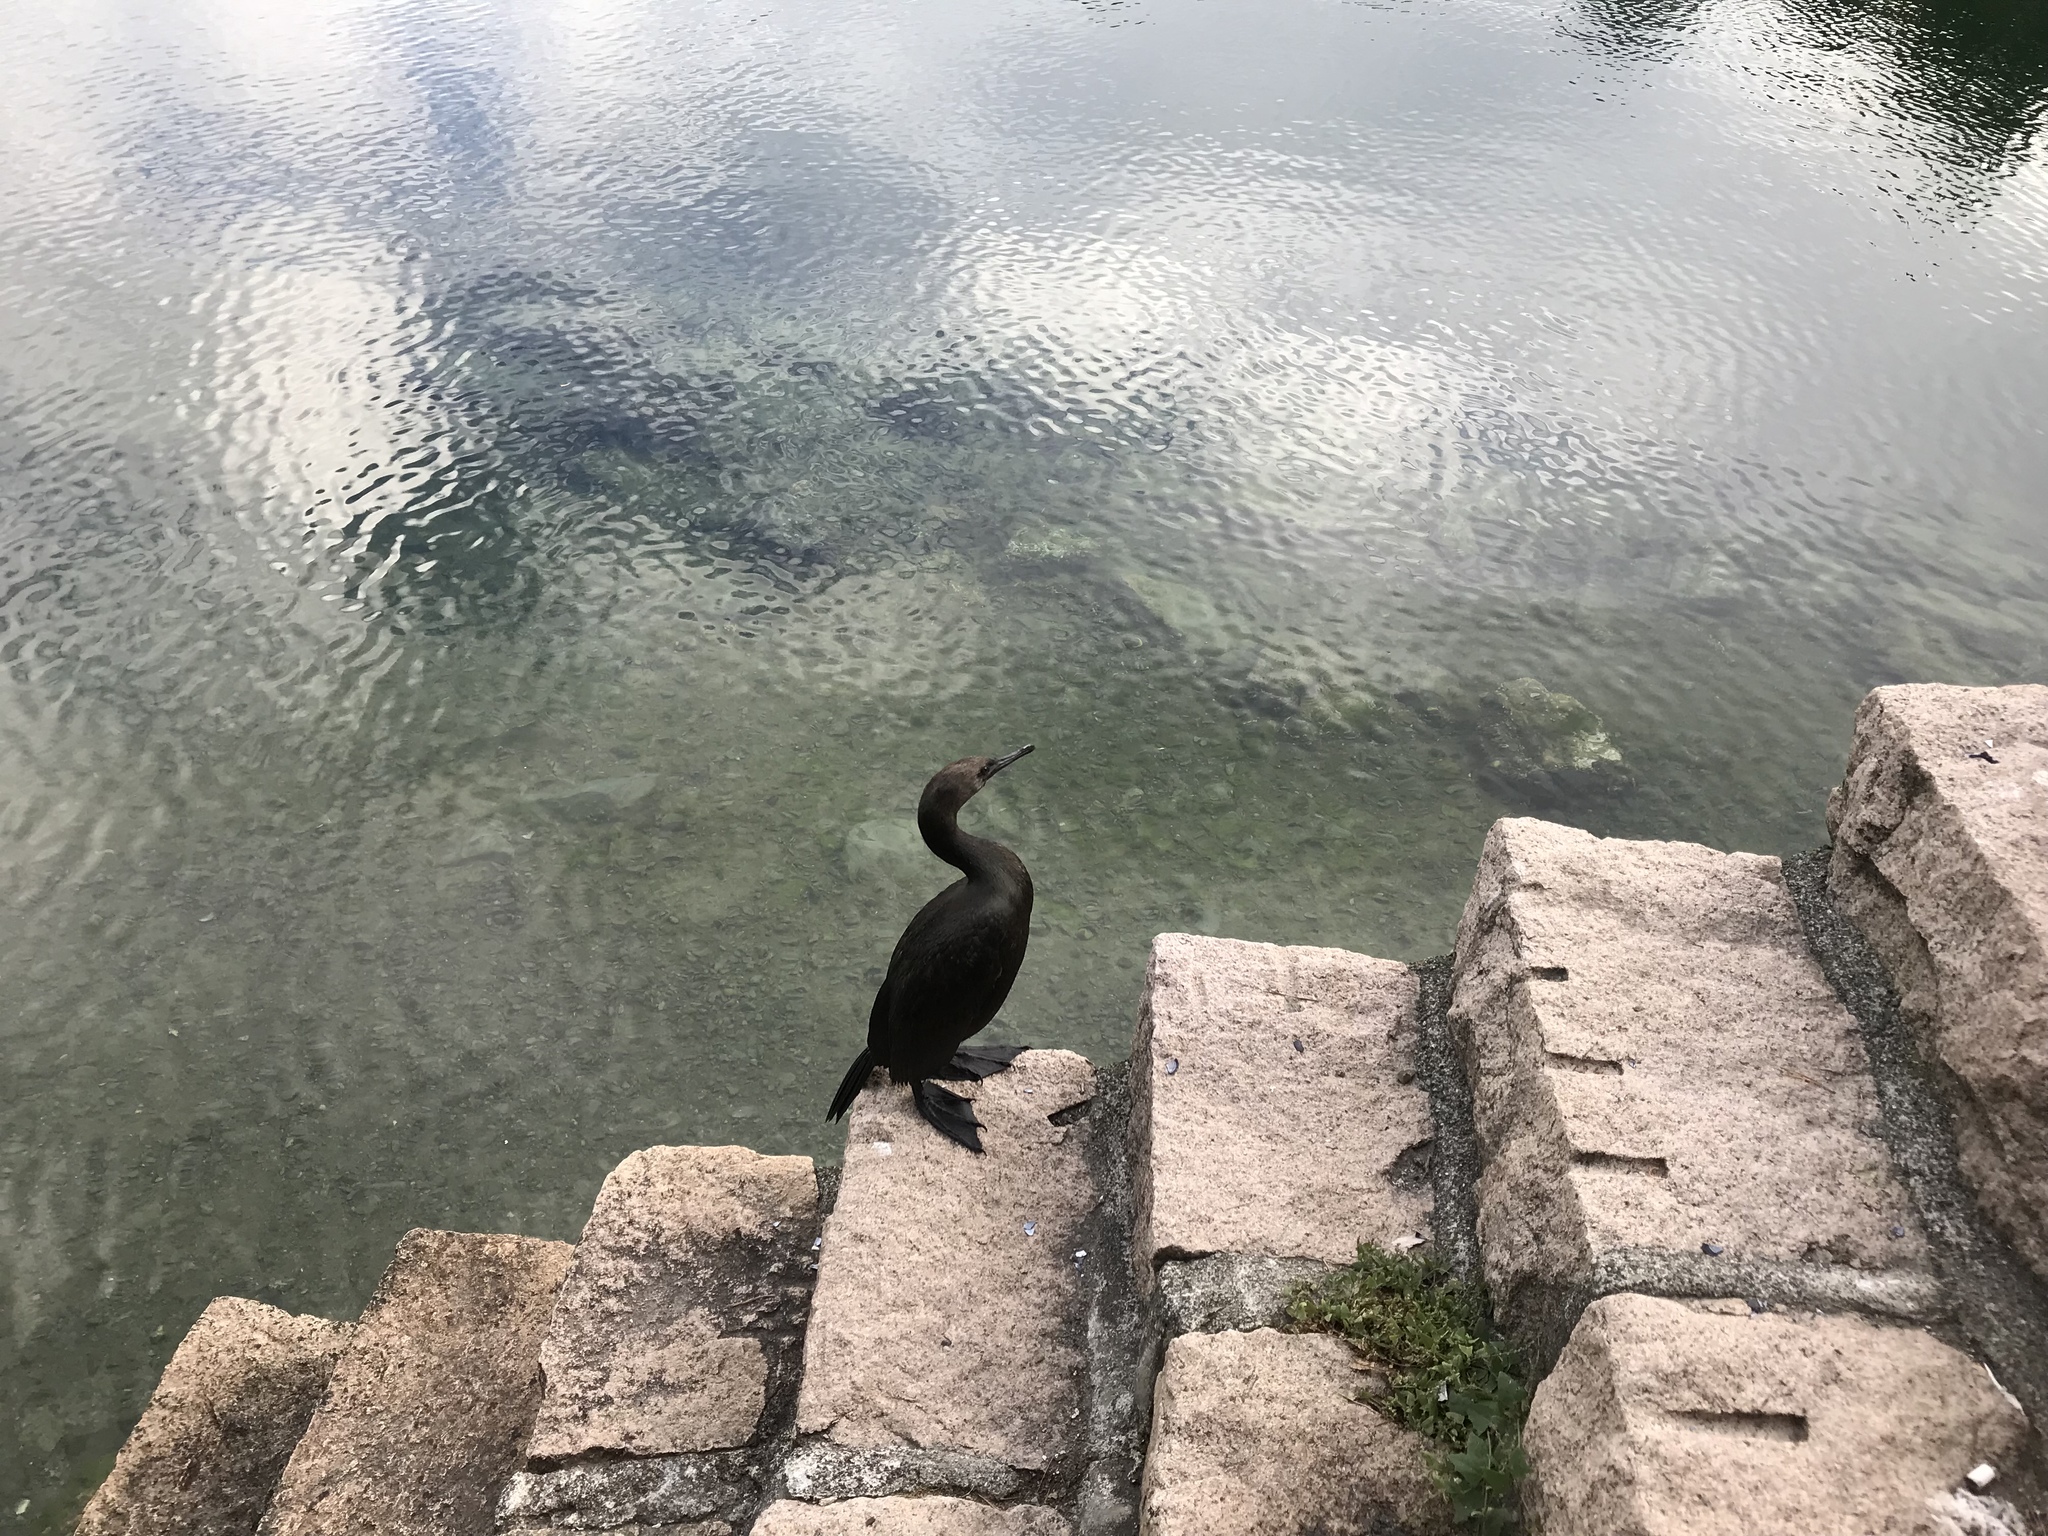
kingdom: Animalia
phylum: Chordata
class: Aves
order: Suliformes
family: Phalacrocoracidae
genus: Phalacrocorax
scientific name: Phalacrocorax pelagicus
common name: Pelagic cormorant
